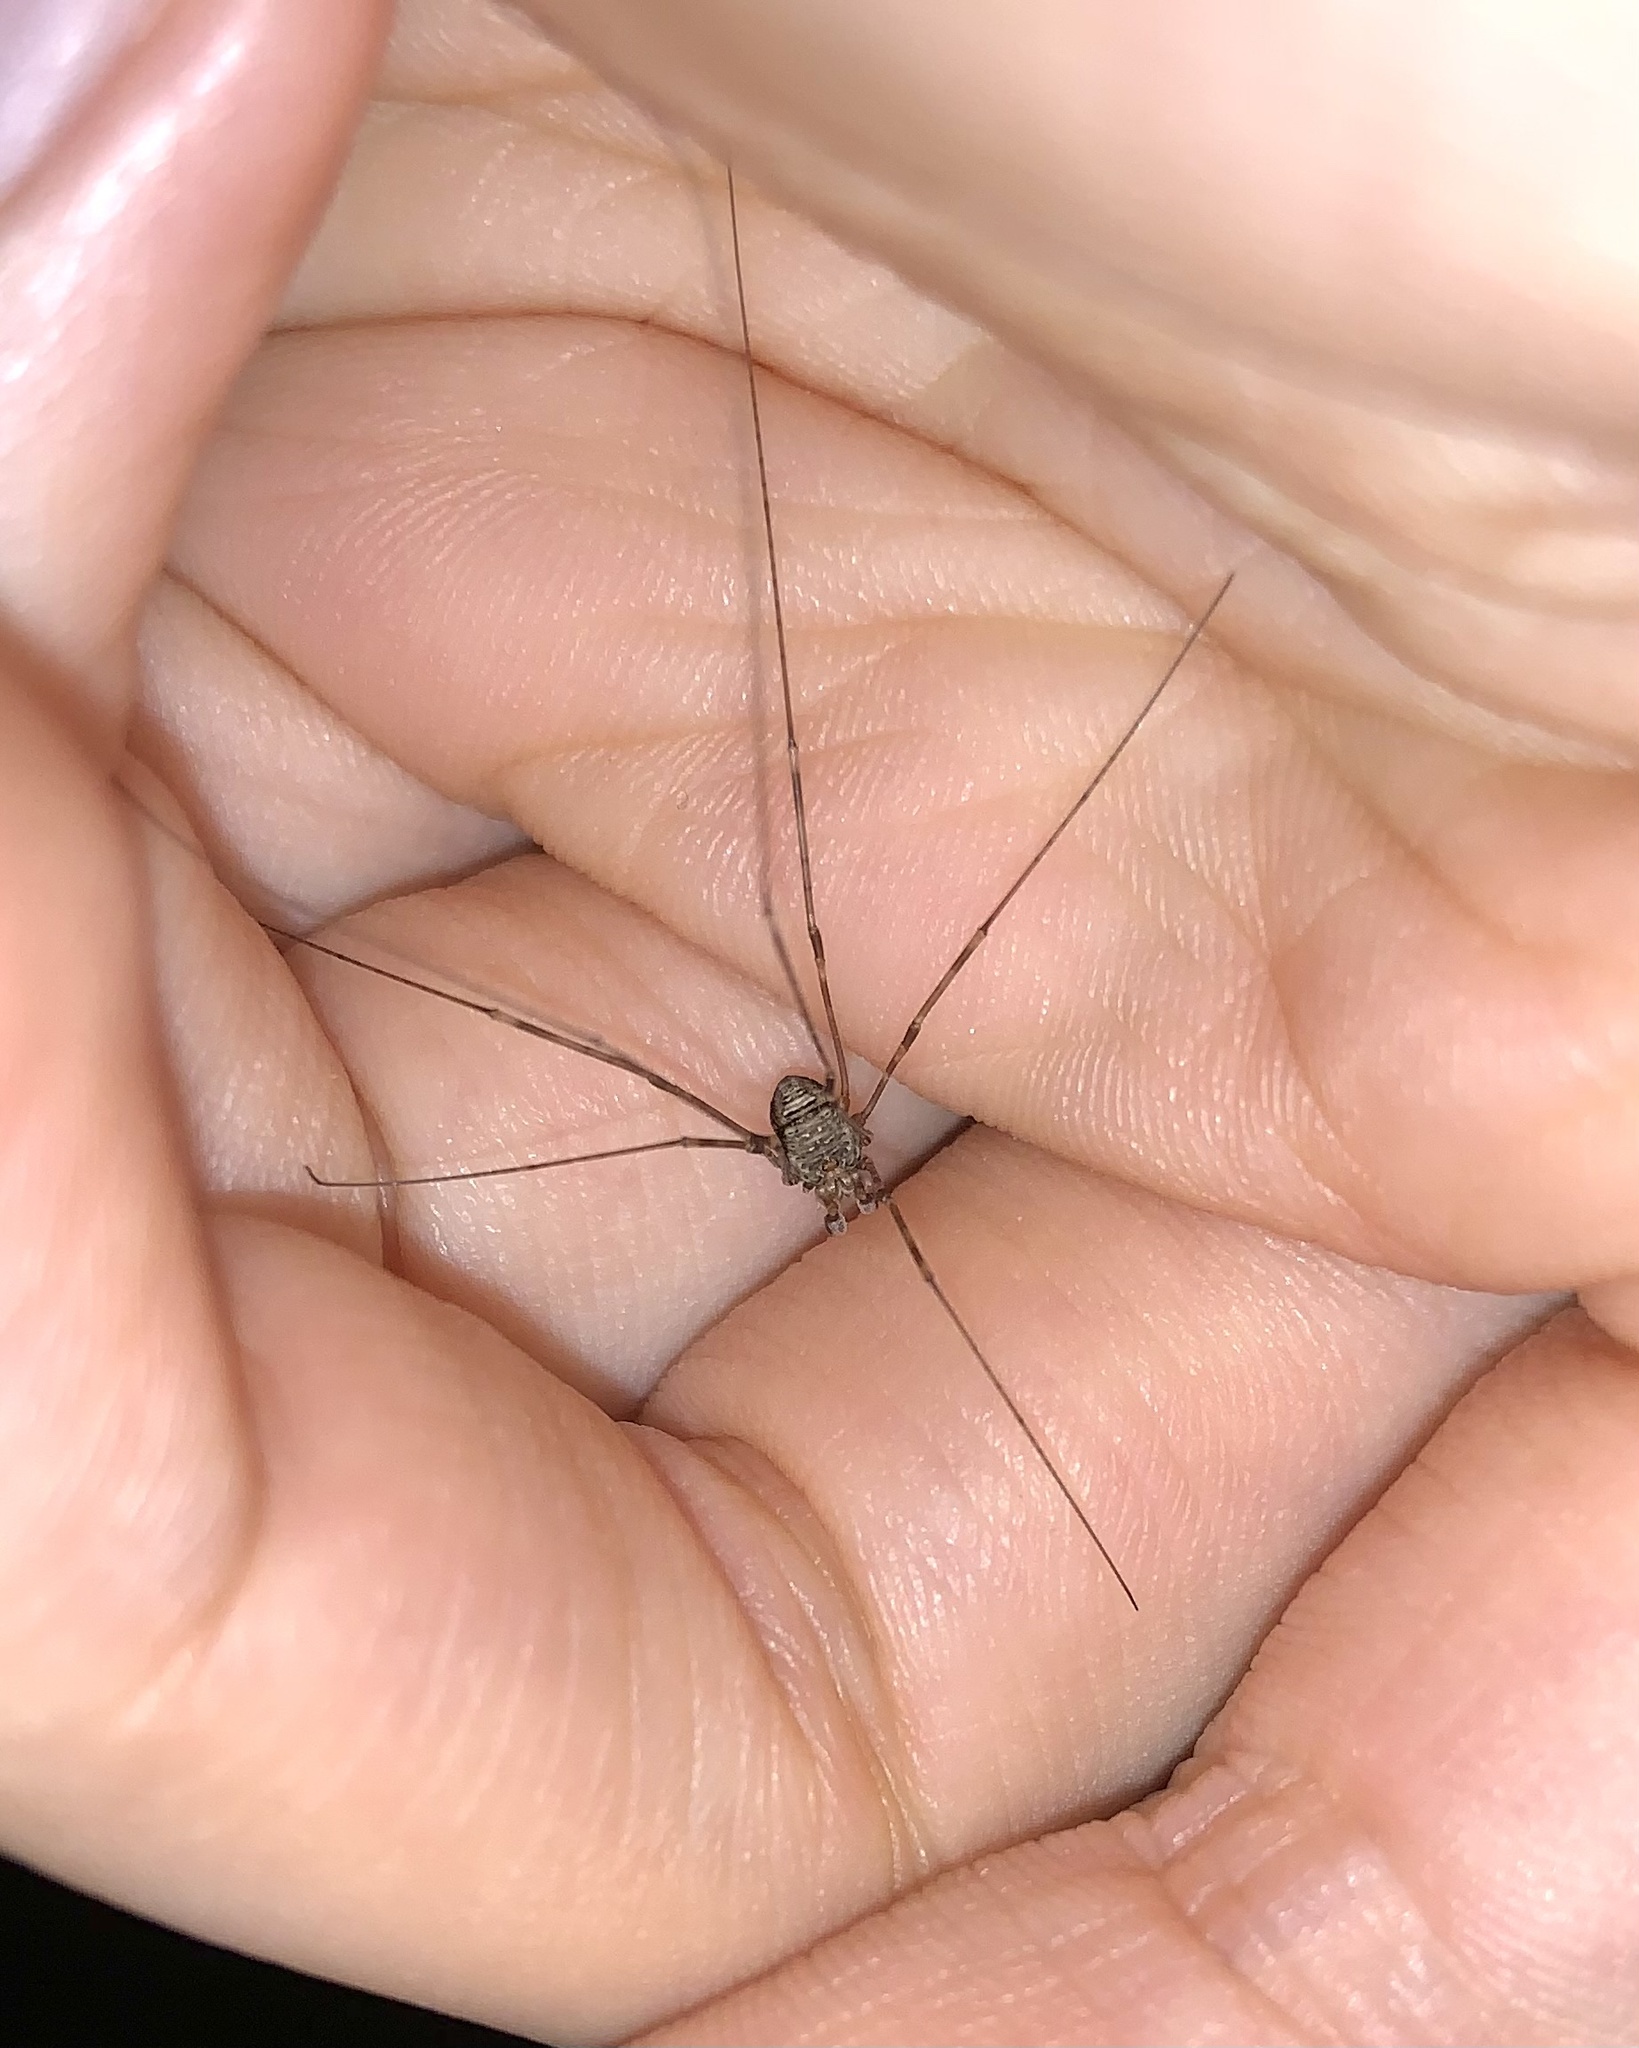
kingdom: Animalia
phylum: Arthropoda
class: Arachnida
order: Opiliones
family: Phalangiidae
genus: Dicranopalpus
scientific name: Dicranopalpus ramosus
